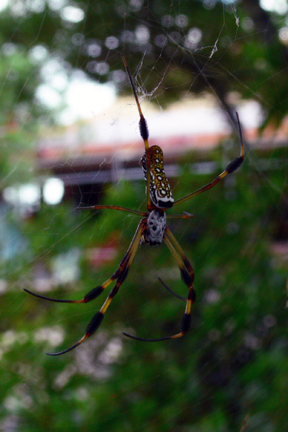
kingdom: Animalia
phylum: Arthropoda
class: Arachnida
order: Araneae
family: Araneidae
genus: Trichonephila
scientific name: Trichonephila clavipes
